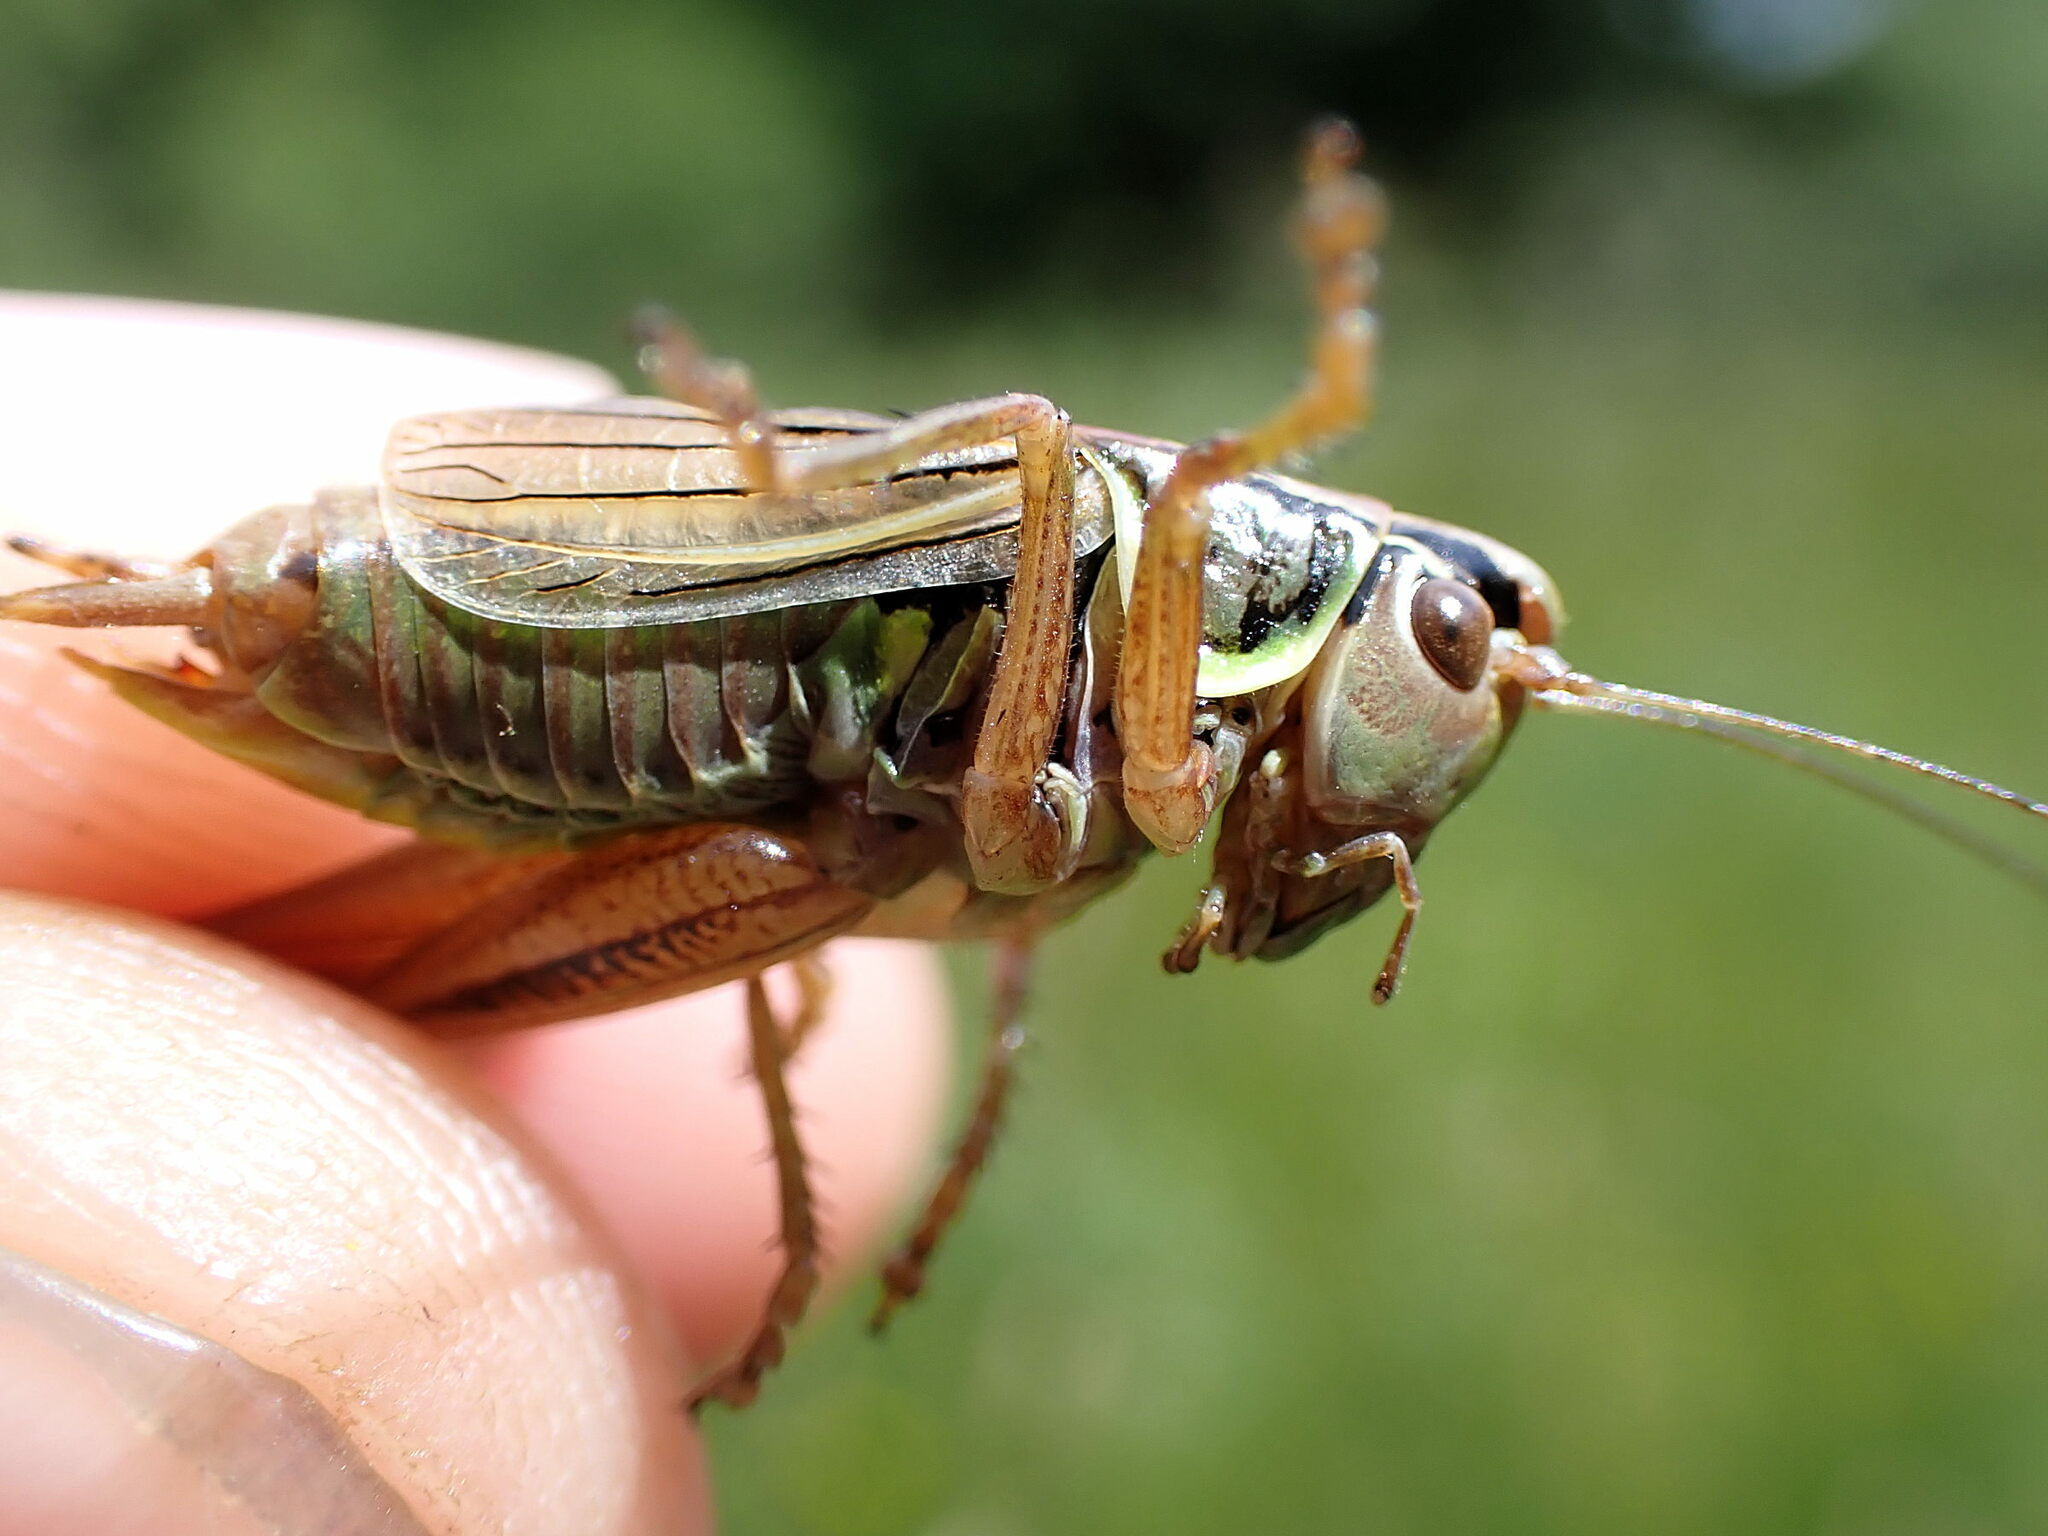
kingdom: Animalia
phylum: Arthropoda
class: Insecta
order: Orthoptera
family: Tettigoniidae
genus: Roeseliana
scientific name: Roeseliana roeselii
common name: Roesel's bush cricket
